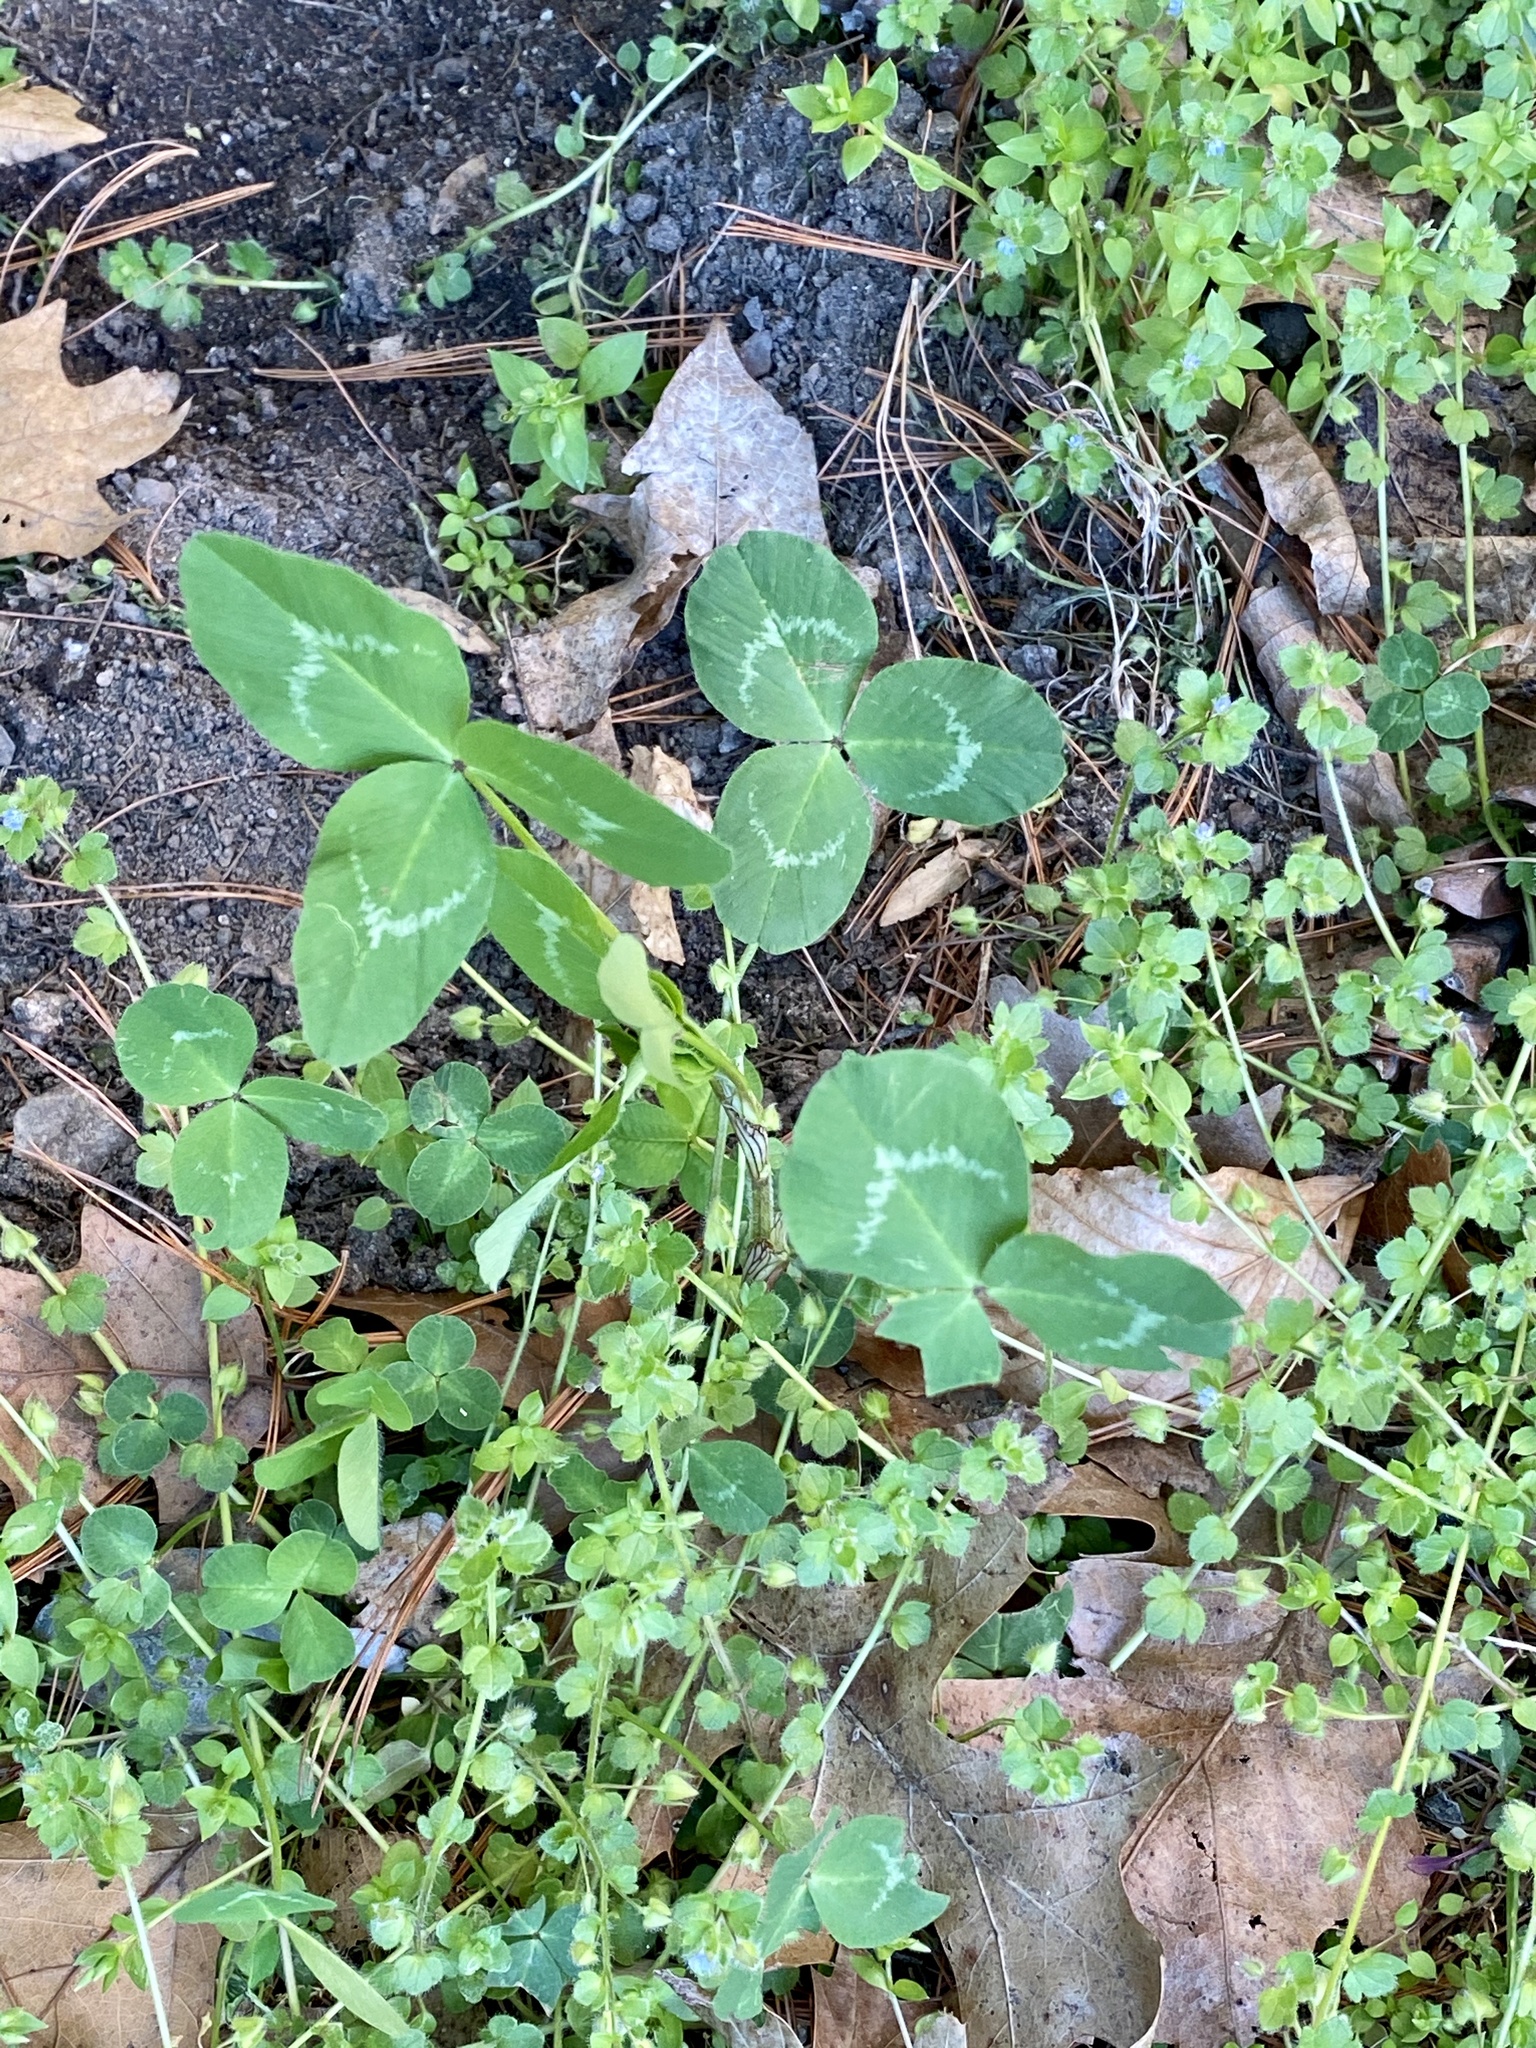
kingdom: Plantae
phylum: Tracheophyta
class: Magnoliopsida
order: Fabales
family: Fabaceae
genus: Trifolium
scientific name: Trifolium pratense
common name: Red clover
